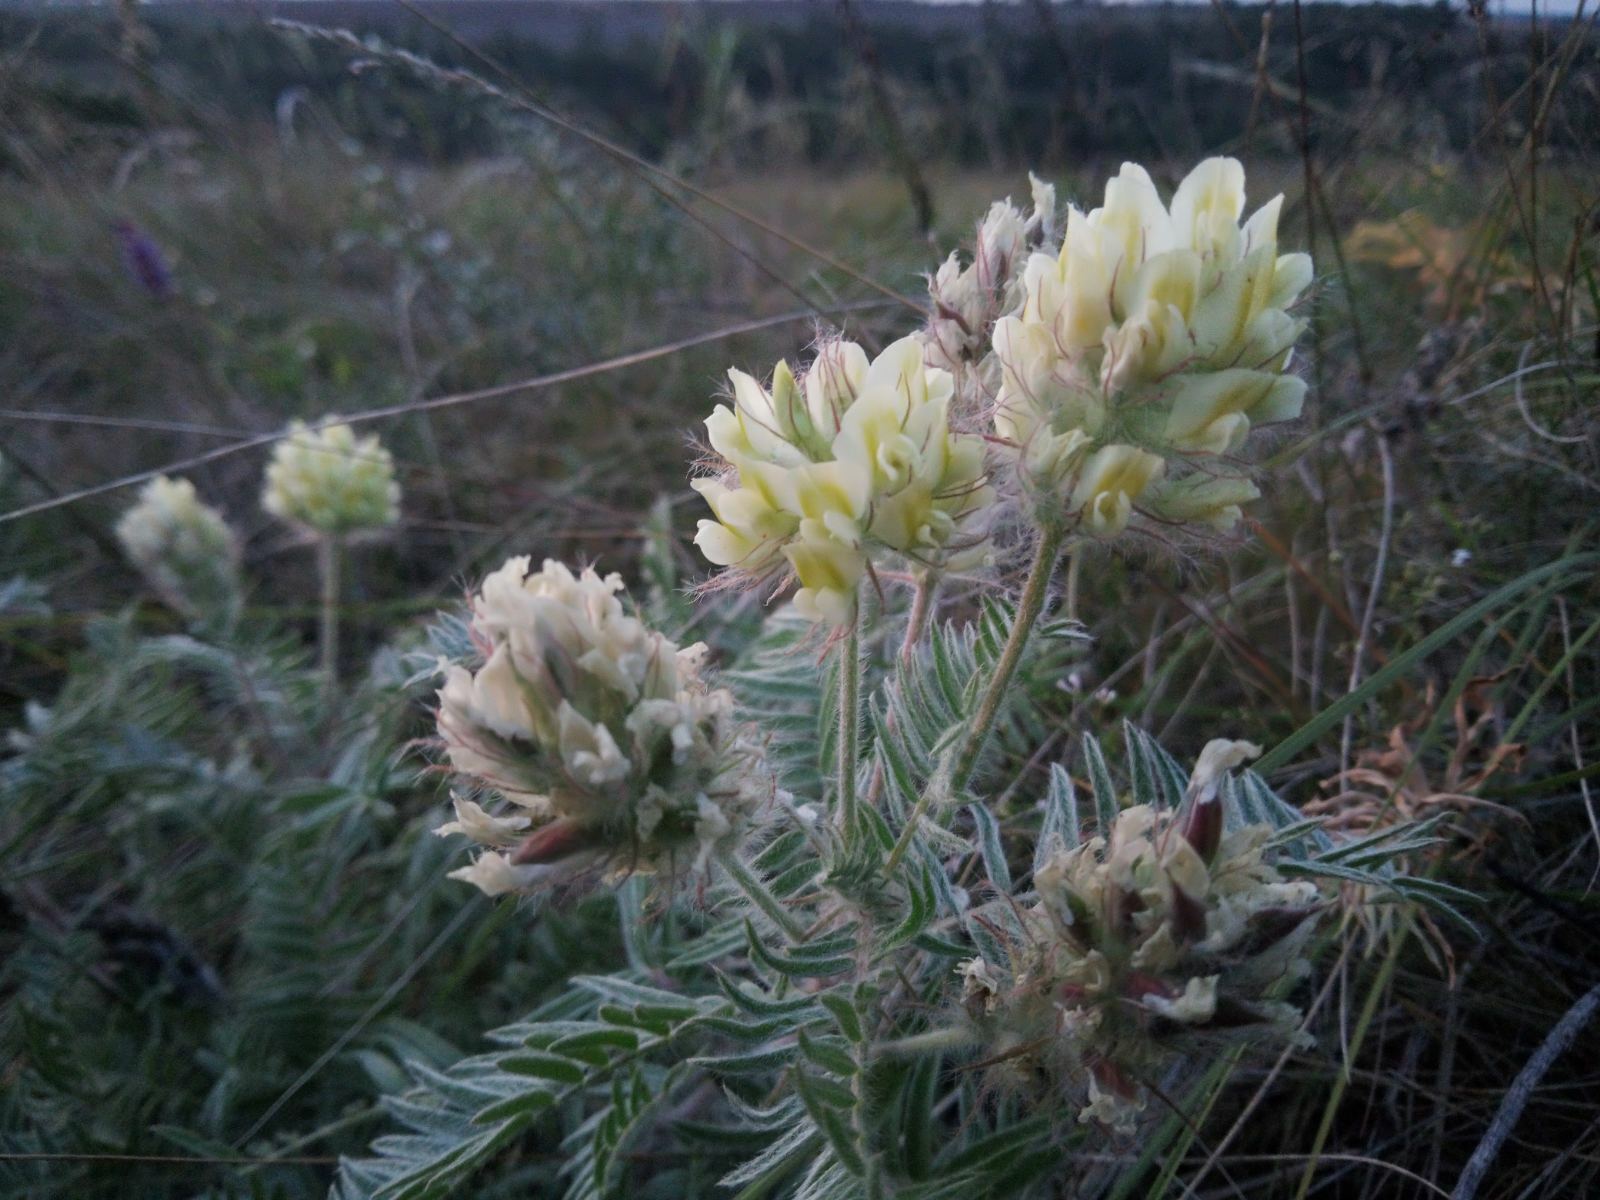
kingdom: Plantae
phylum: Tracheophyta
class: Magnoliopsida
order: Fabales
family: Fabaceae
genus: Oxytropis
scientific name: Oxytropis pilosa
